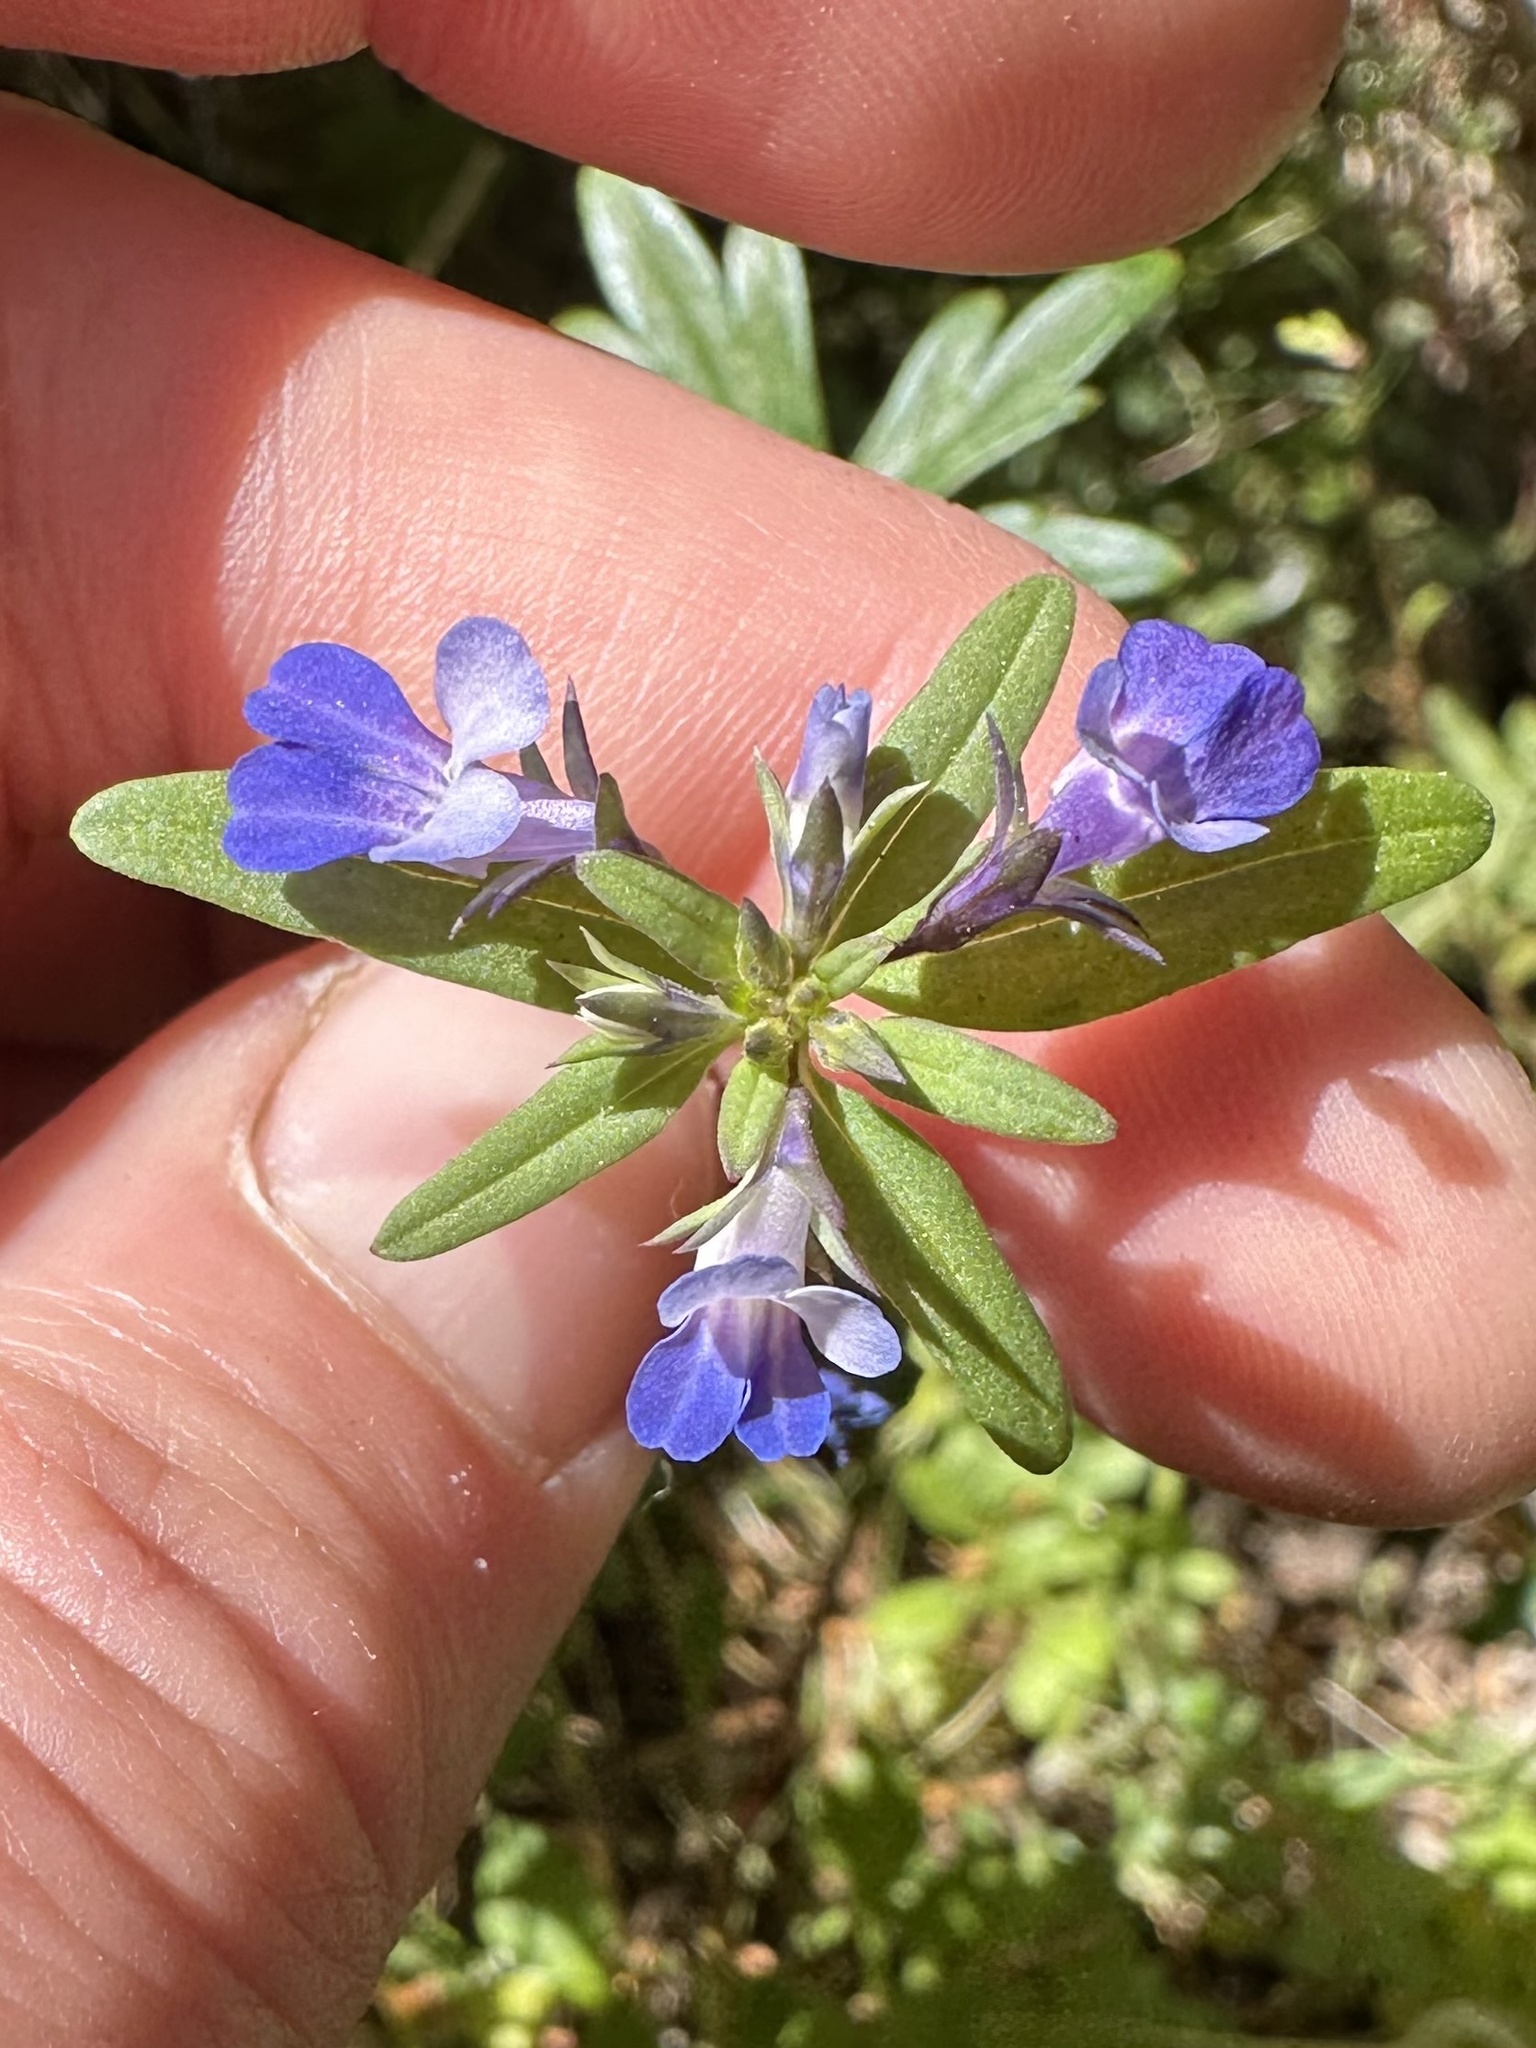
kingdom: Plantae
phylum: Tracheophyta
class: Magnoliopsida
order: Lamiales
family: Plantaginaceae
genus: Collinsia
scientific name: Collinsia grandiflora
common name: Large-flower blue-eyed-mary
